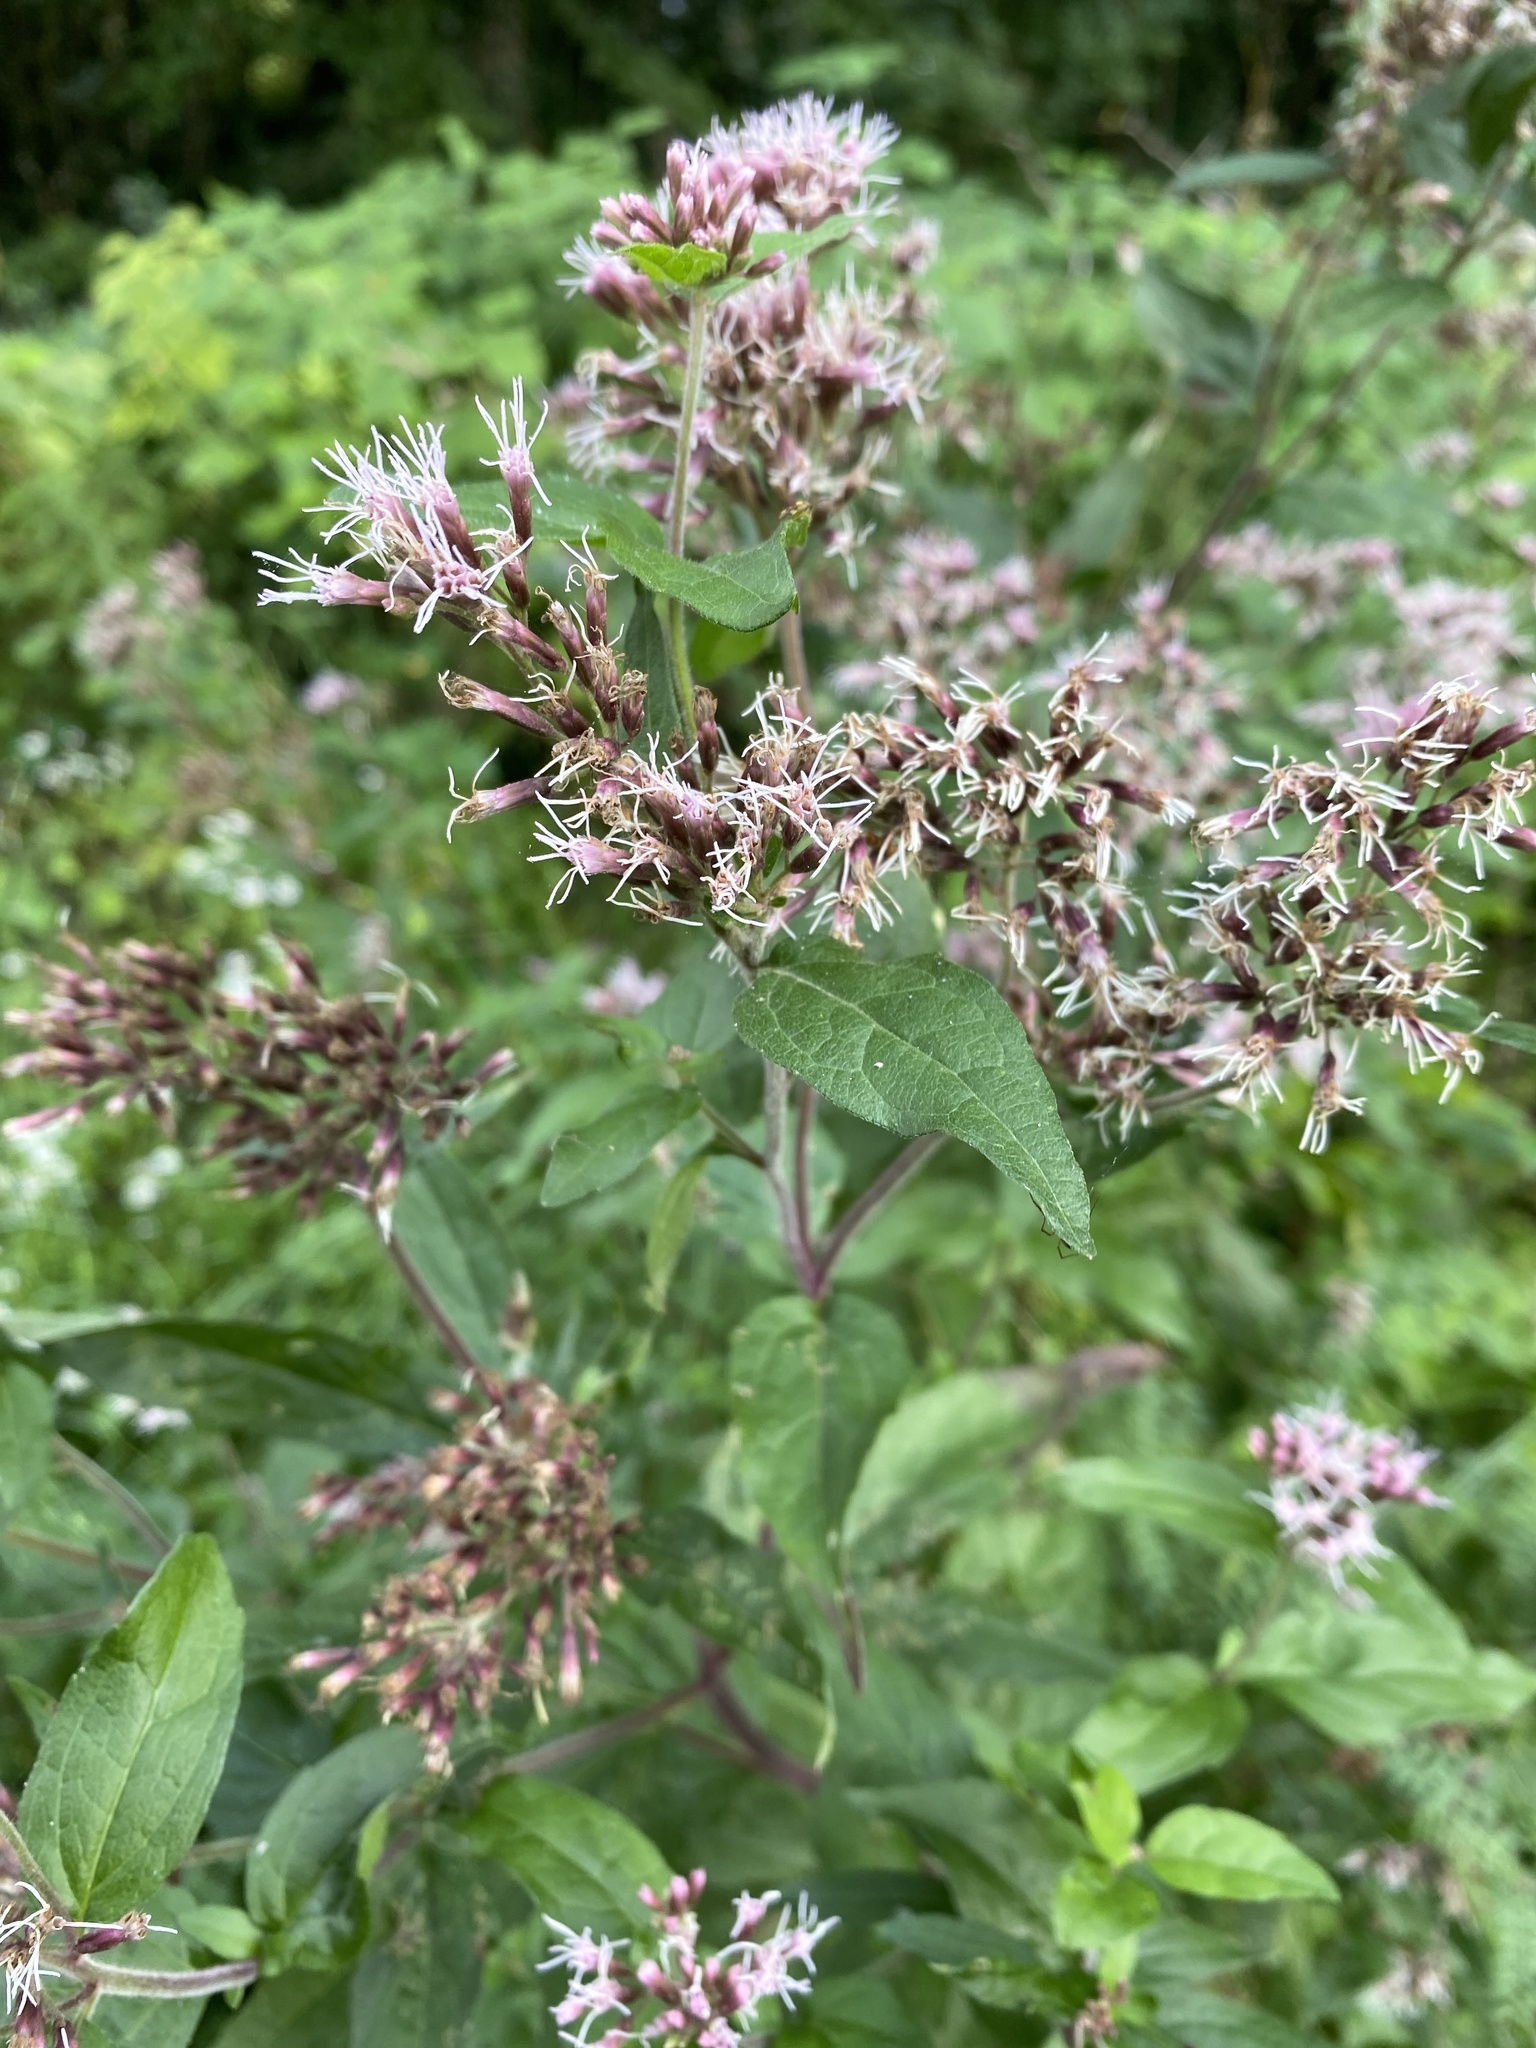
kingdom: Plantae
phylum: Tracheophyta
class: Magnoliopsida
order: Asterales
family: Asteraceae
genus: Eupatorium
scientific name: Eupatorium cannabinum
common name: Hemp-agrimony
